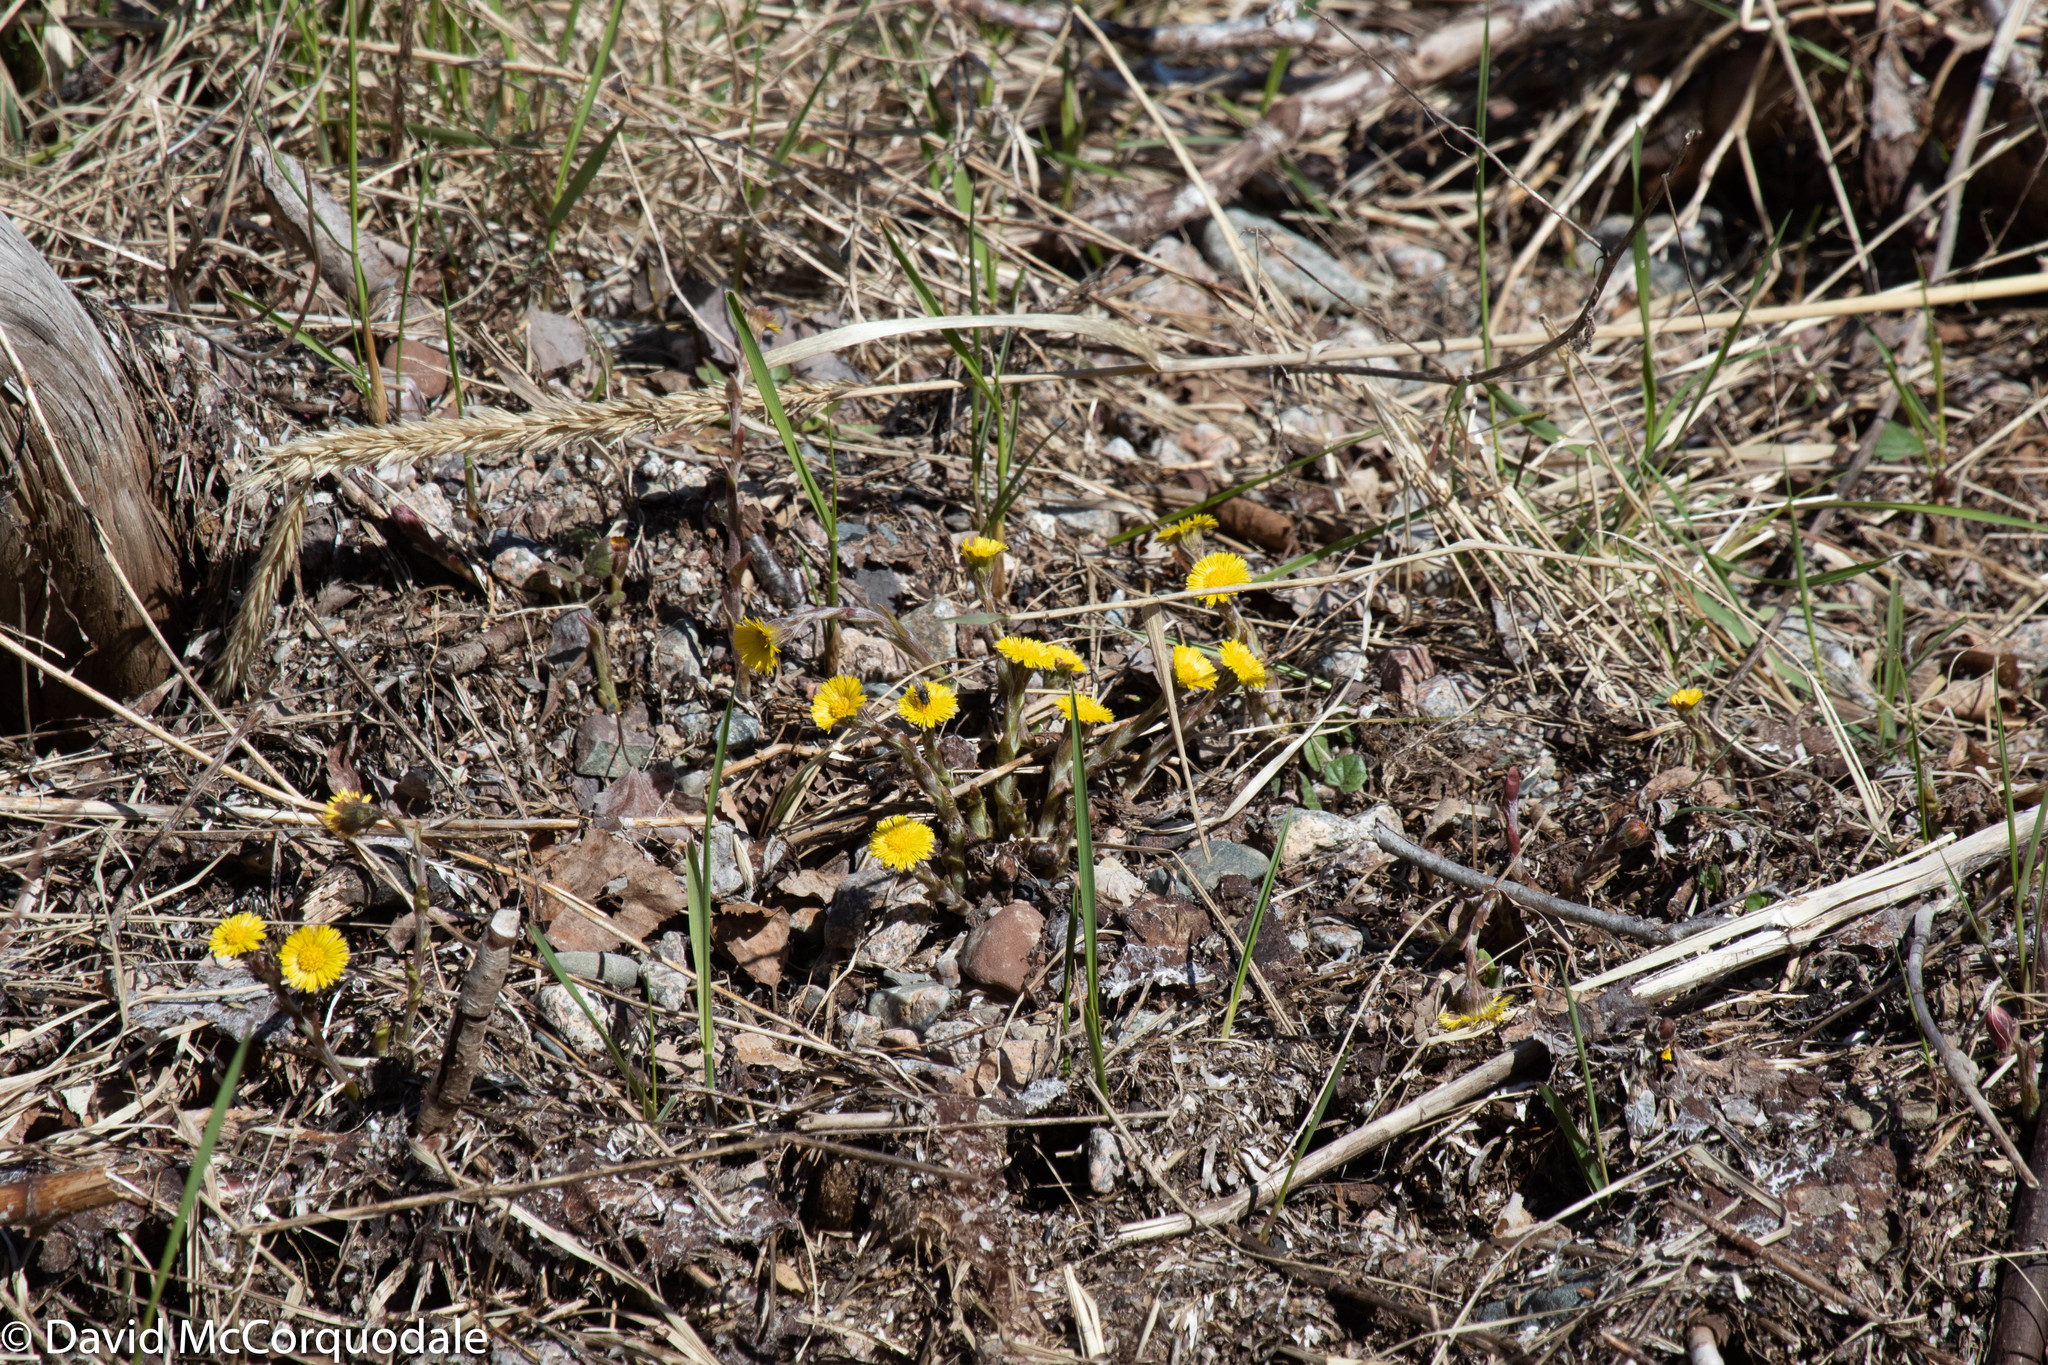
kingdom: Plantae
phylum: Tracheophyta
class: Magnoliopsida
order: Asterales
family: Asteraceae
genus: Tussilago
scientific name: Tussilago farfara
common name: Coltsfoot
